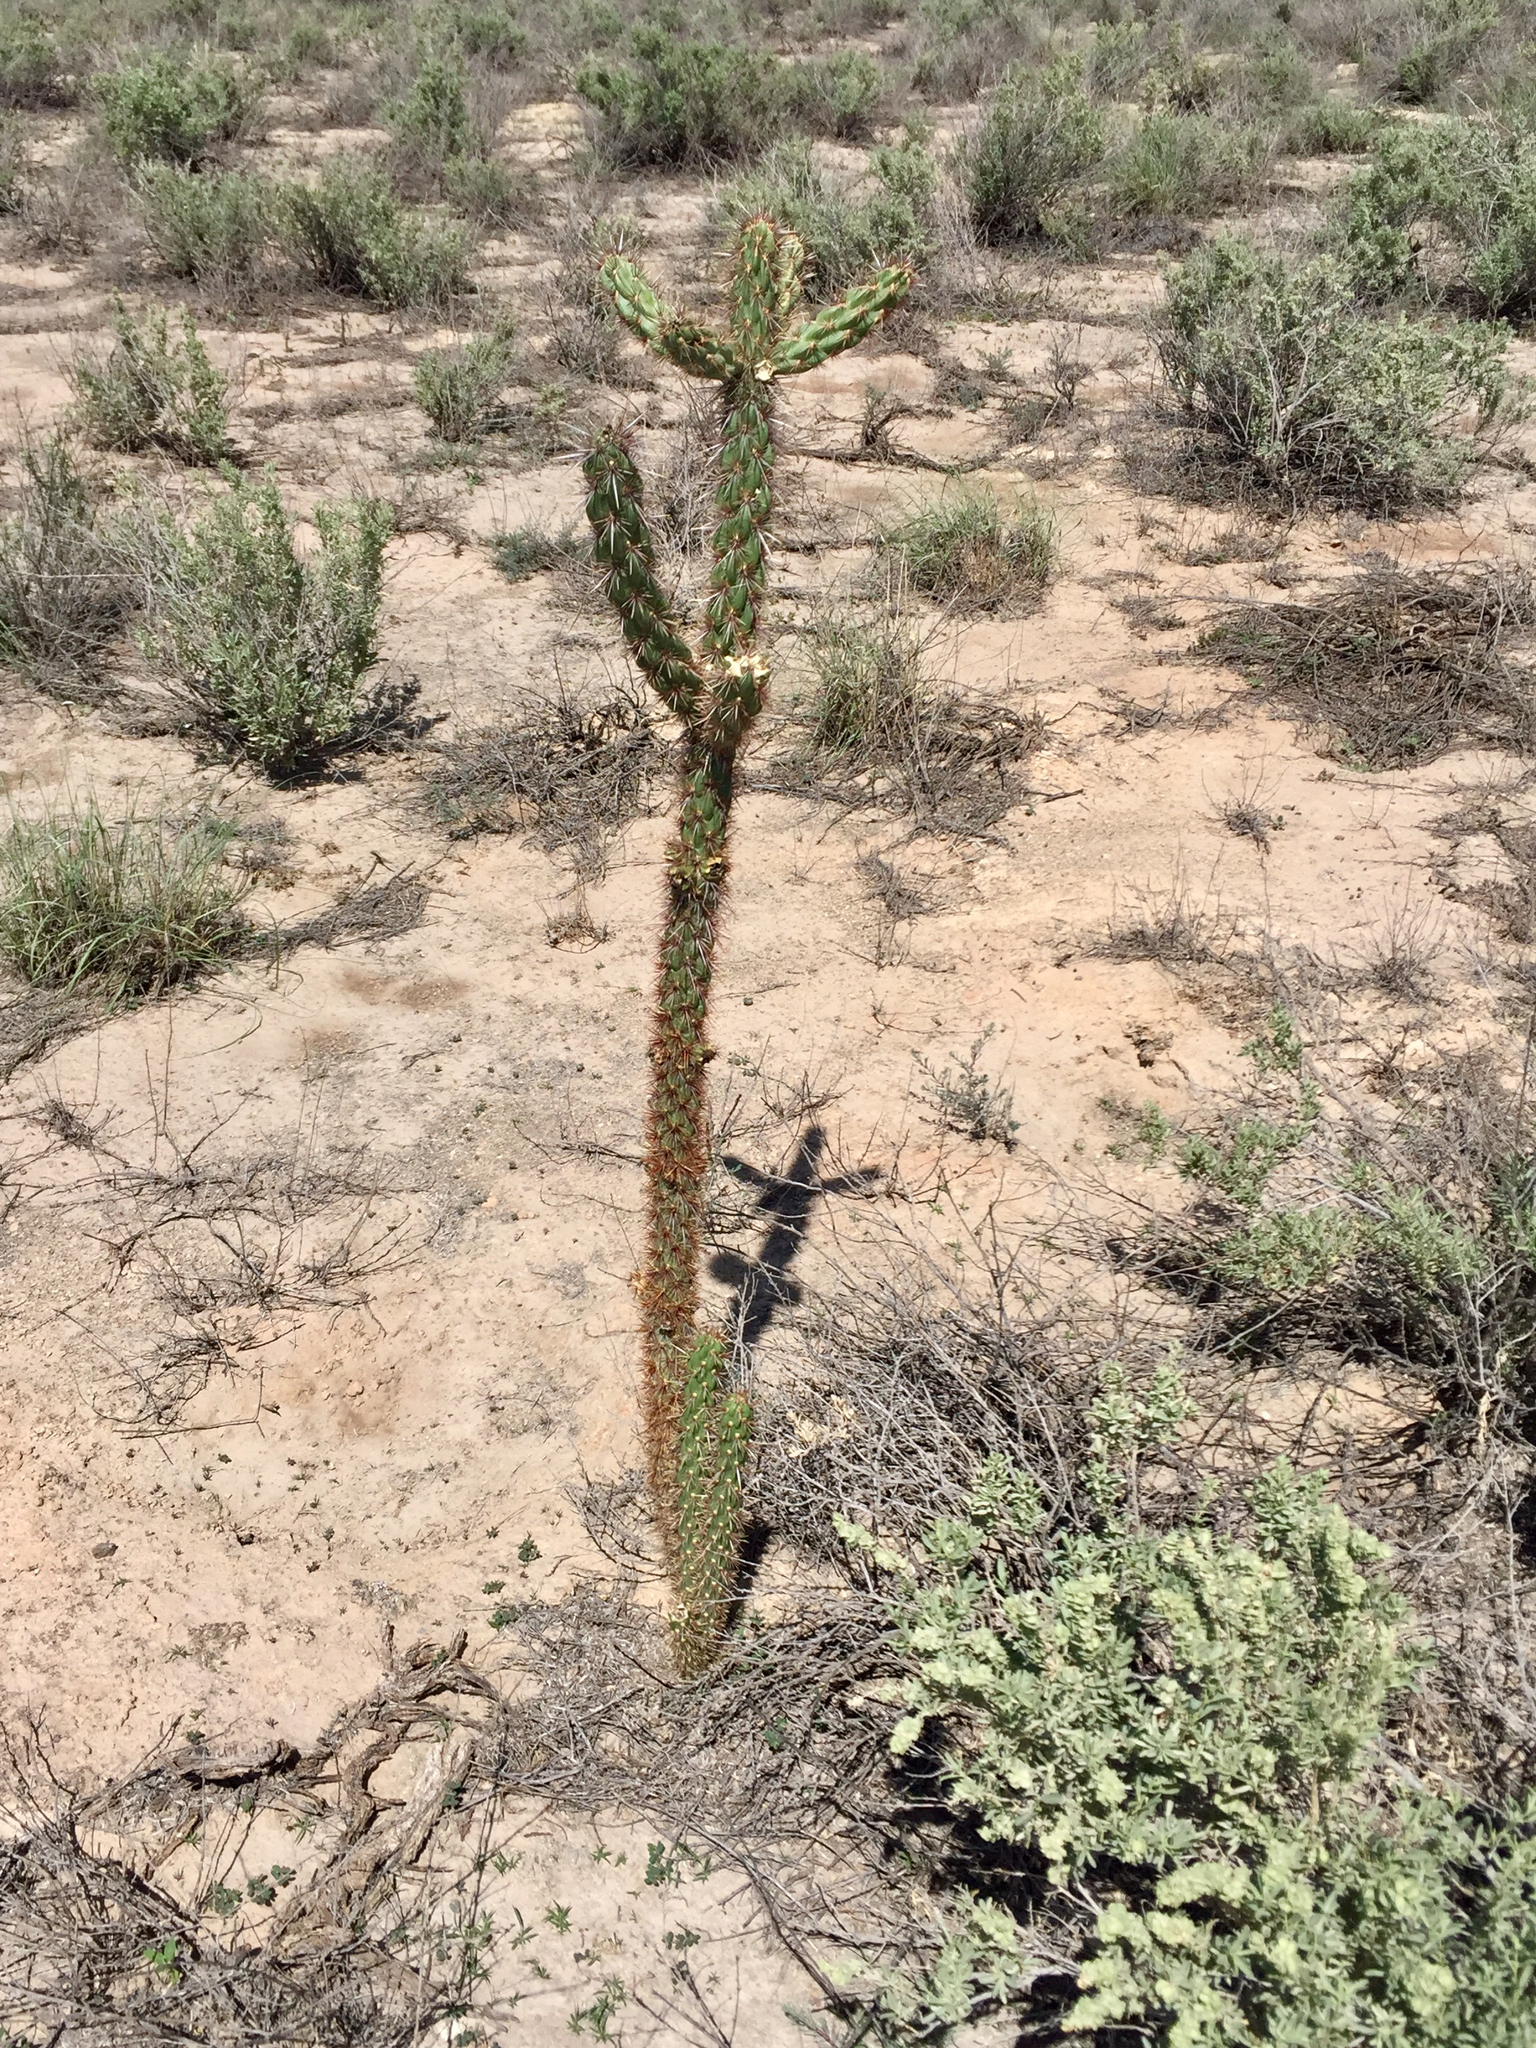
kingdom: Plantae
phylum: Tracheophyta
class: Magnoliopsida
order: Caryophyllales
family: Cactaceae
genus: Cylindropuntia
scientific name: Cylindropuntia imbricata
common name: Candelabrum cactus
